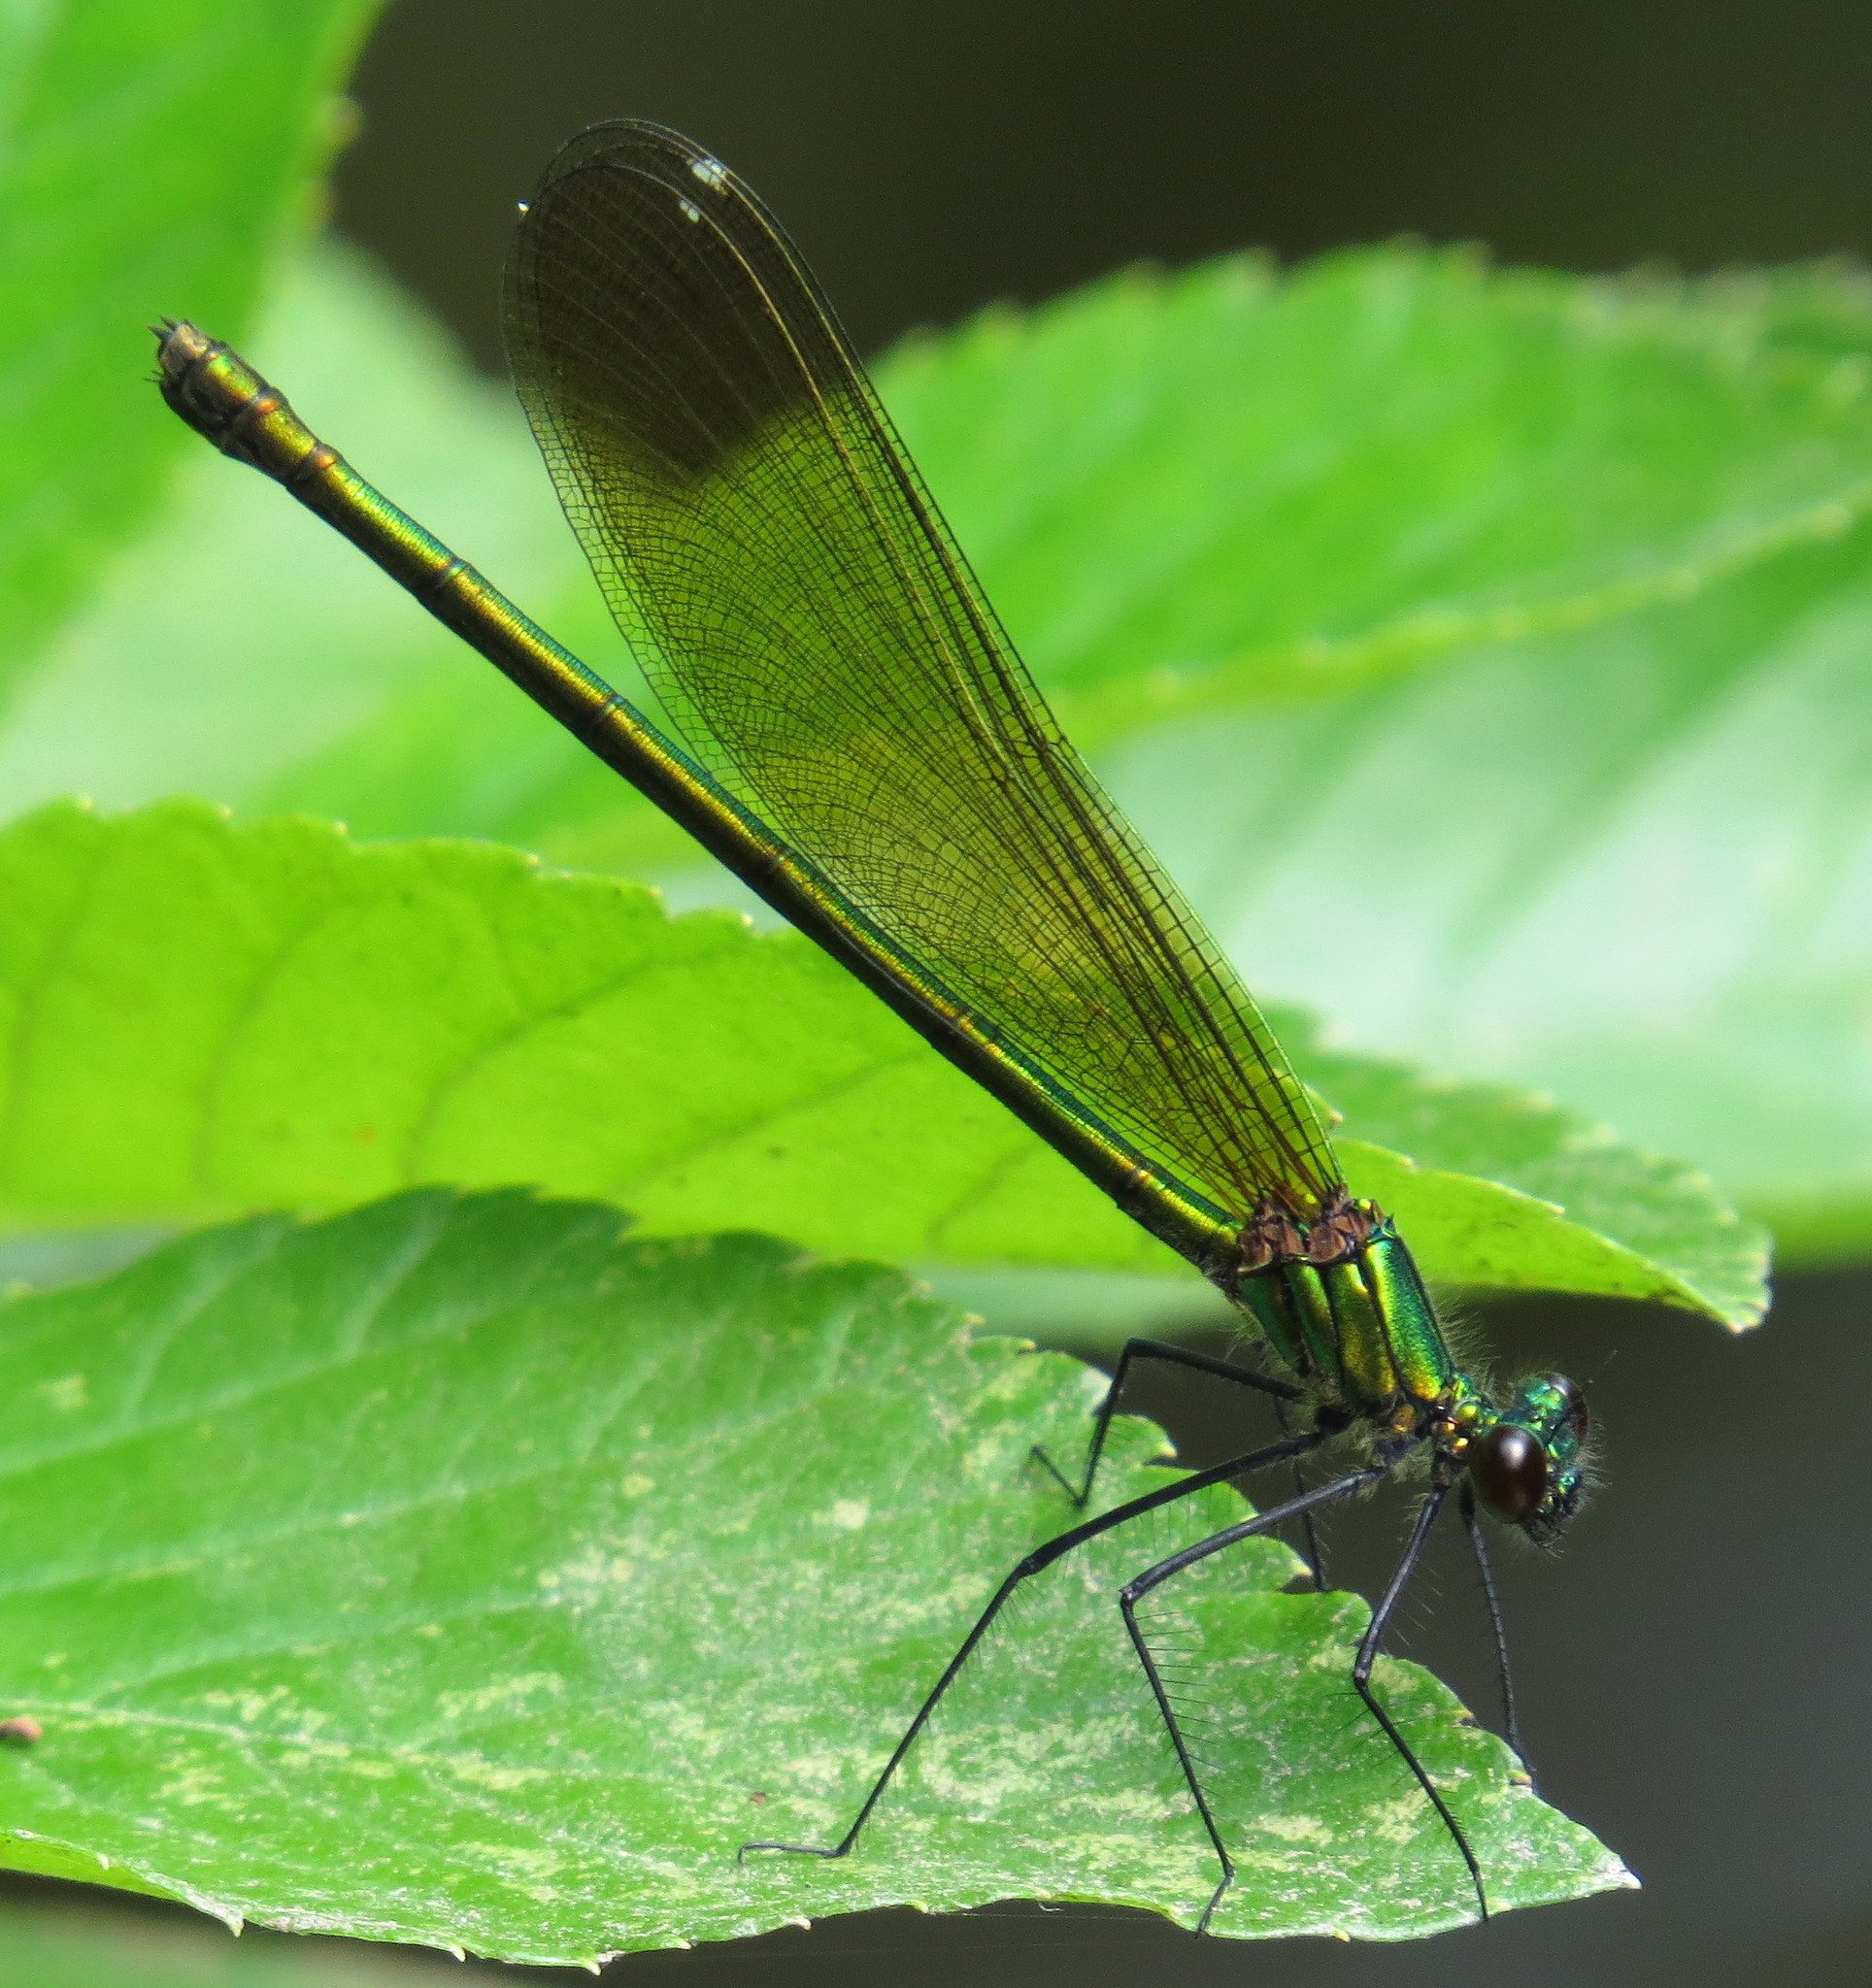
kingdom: Animalia
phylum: Arthropoda
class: Insecta
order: Odonata
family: Calopterygidae
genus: Calopteryx
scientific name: Calopteryx dimidiata
